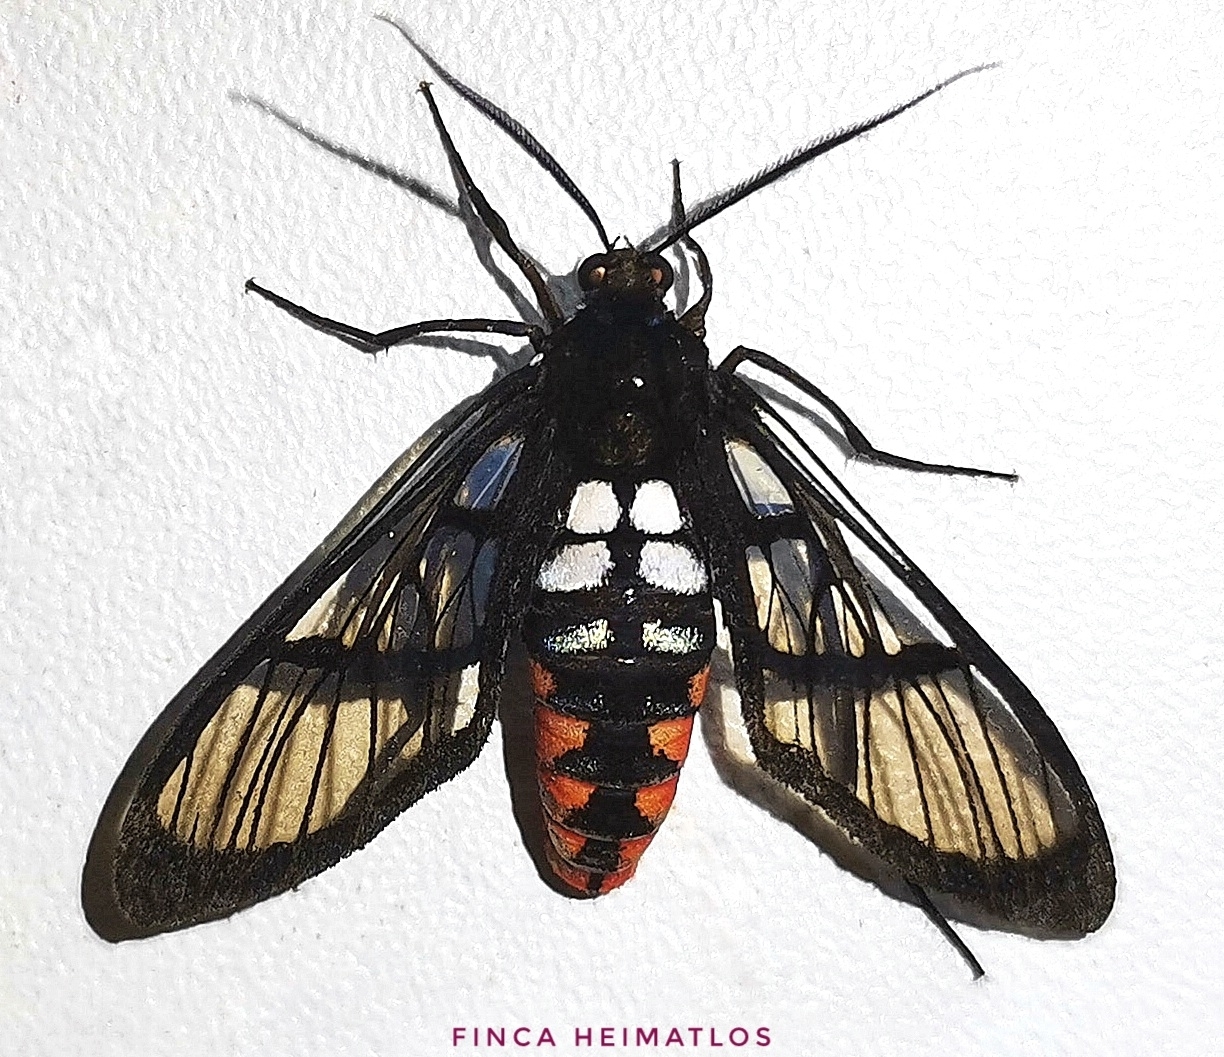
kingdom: Animalia
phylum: Arthropoda
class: Insecta
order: Lepidoptera
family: Erebidae
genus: Autochloris
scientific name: Autochloris flavipes
